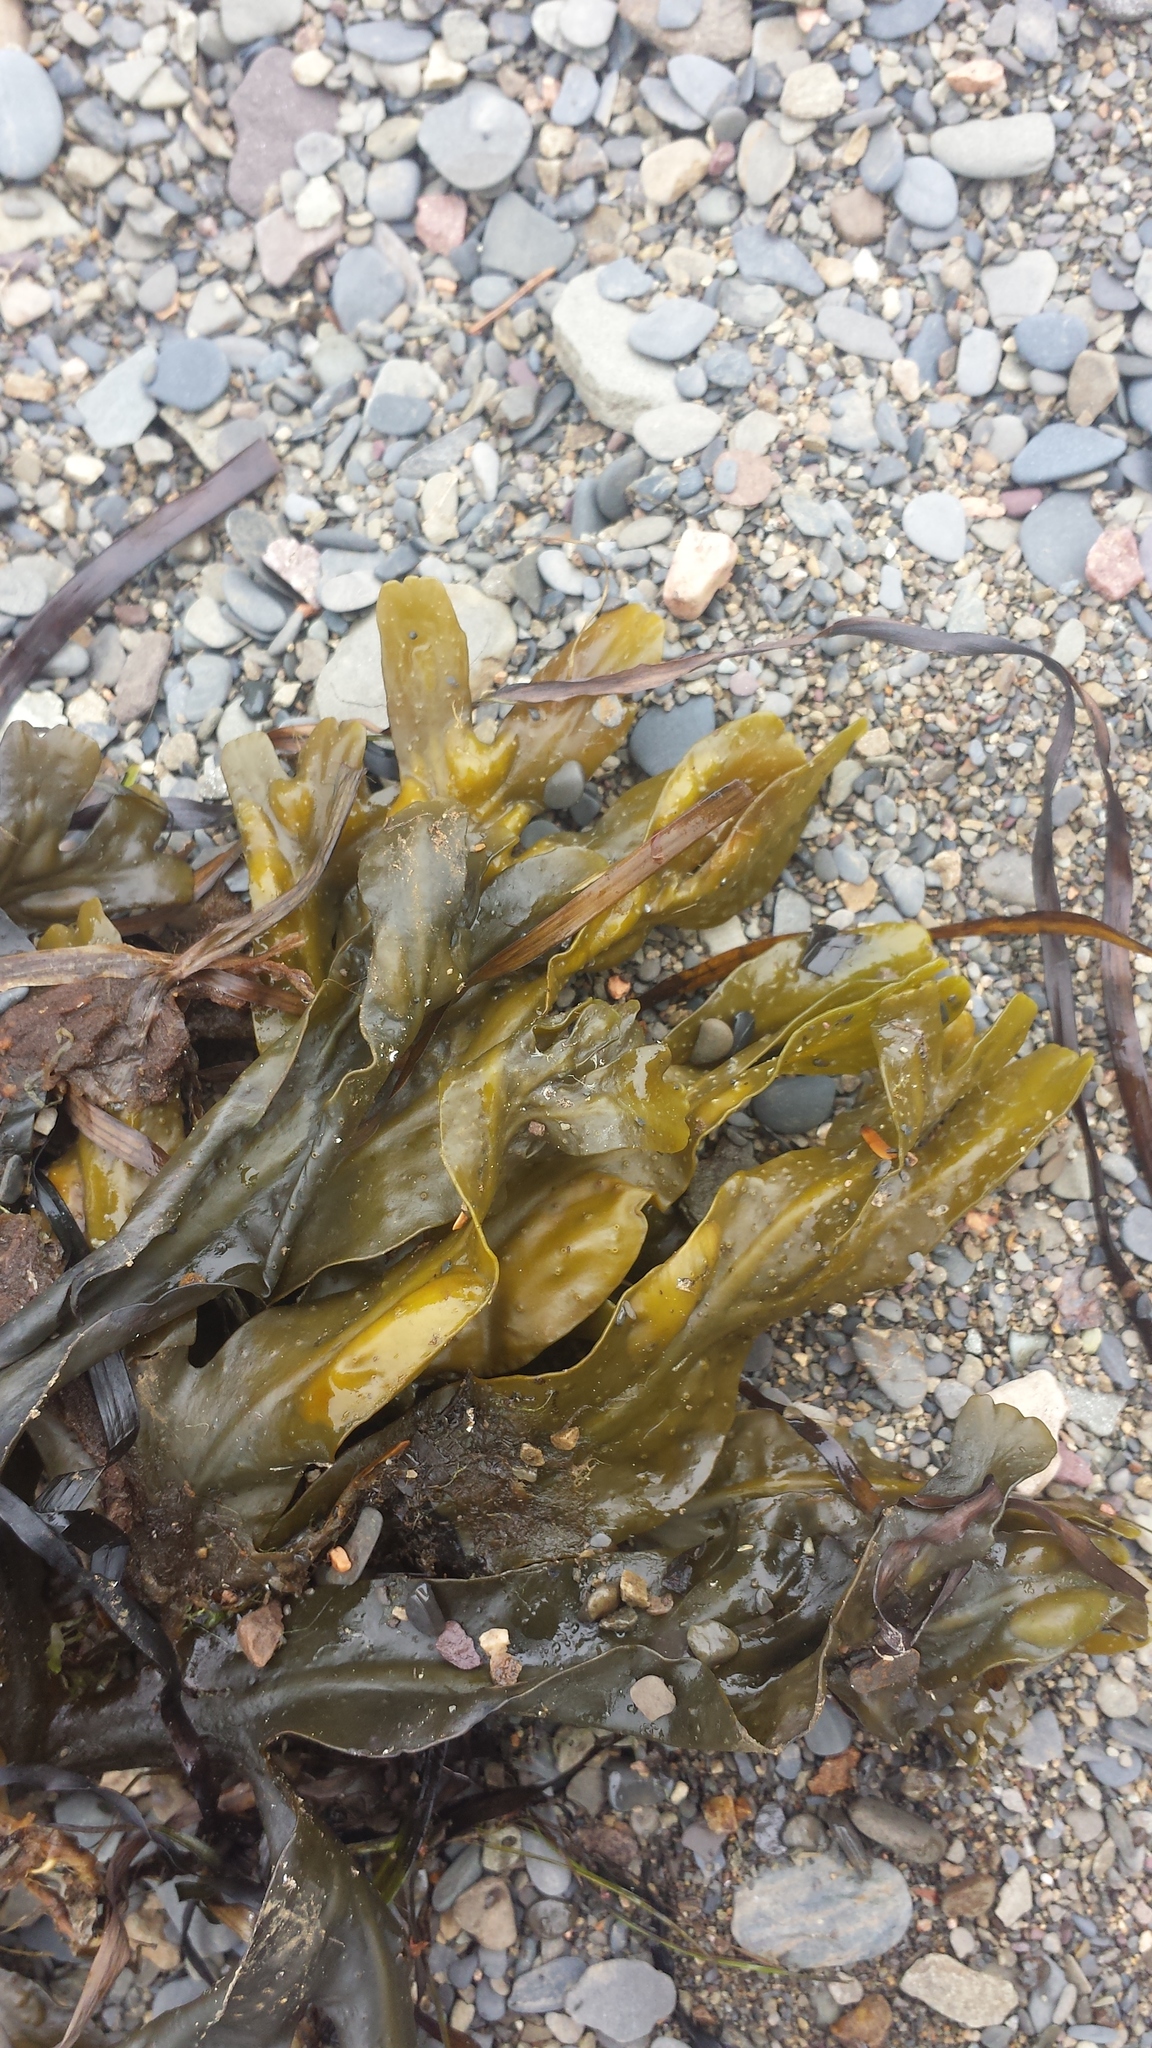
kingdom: Chromista
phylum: Ochrophyta
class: Phaeophyceae
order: Fucales
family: Fucaceae
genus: Fucus
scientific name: Fucus distichus
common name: Rockweed
